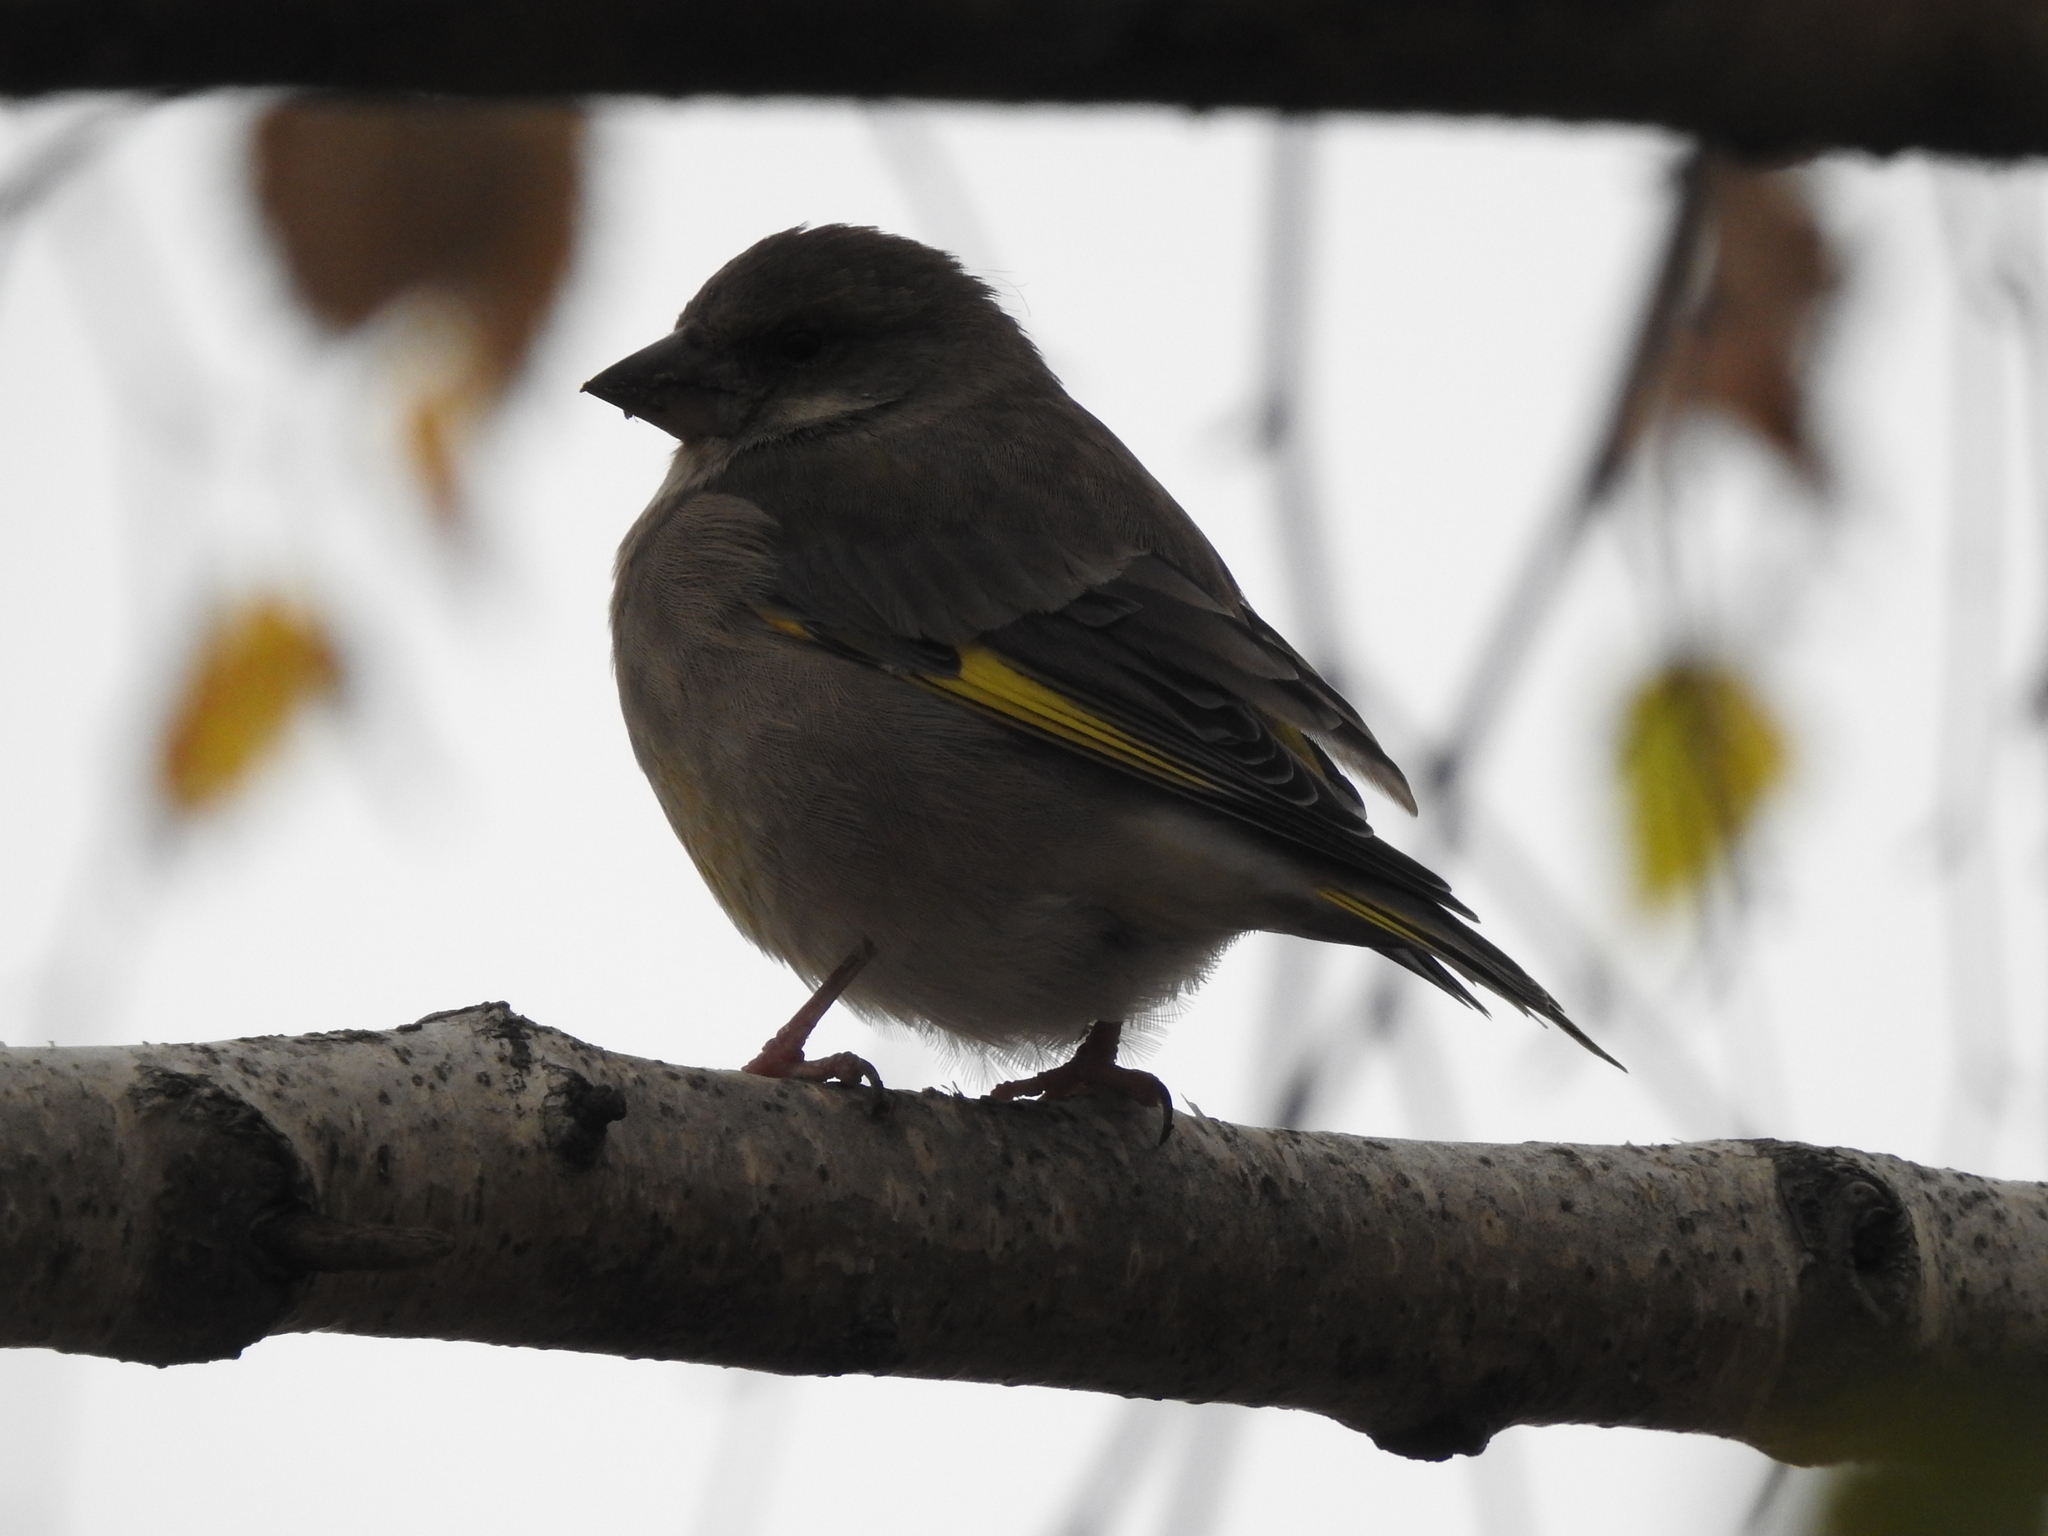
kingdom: Plantae
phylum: Tracheophyta
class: Liliopsida
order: Poales
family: Poaceae
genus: Chloris
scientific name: Chloris chloris
